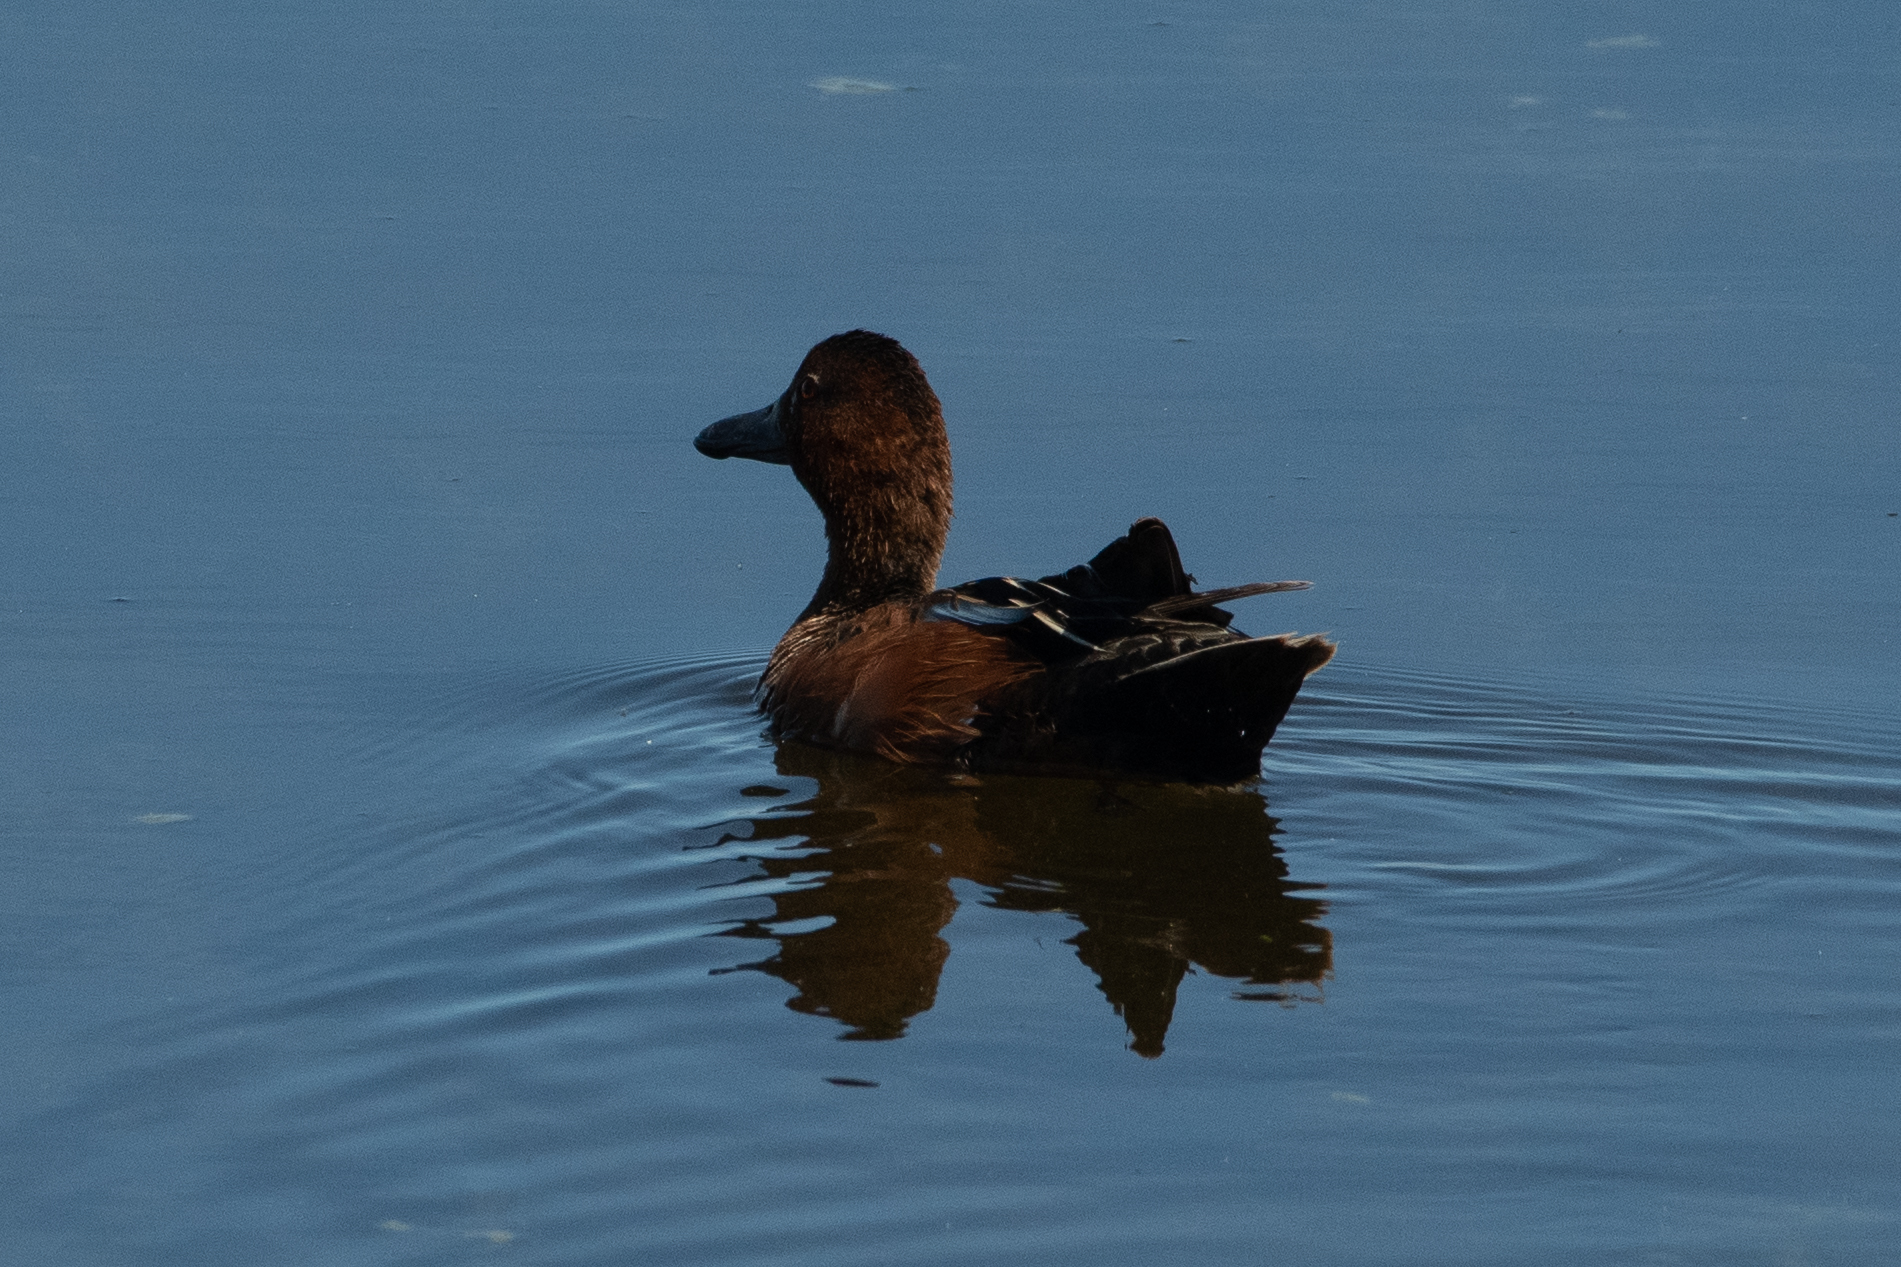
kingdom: Animalia
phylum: Chordata
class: Aves
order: Anseriformes
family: Anatidae
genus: Spatula
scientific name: Spatula cyanoptera
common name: Cinnamon teal
